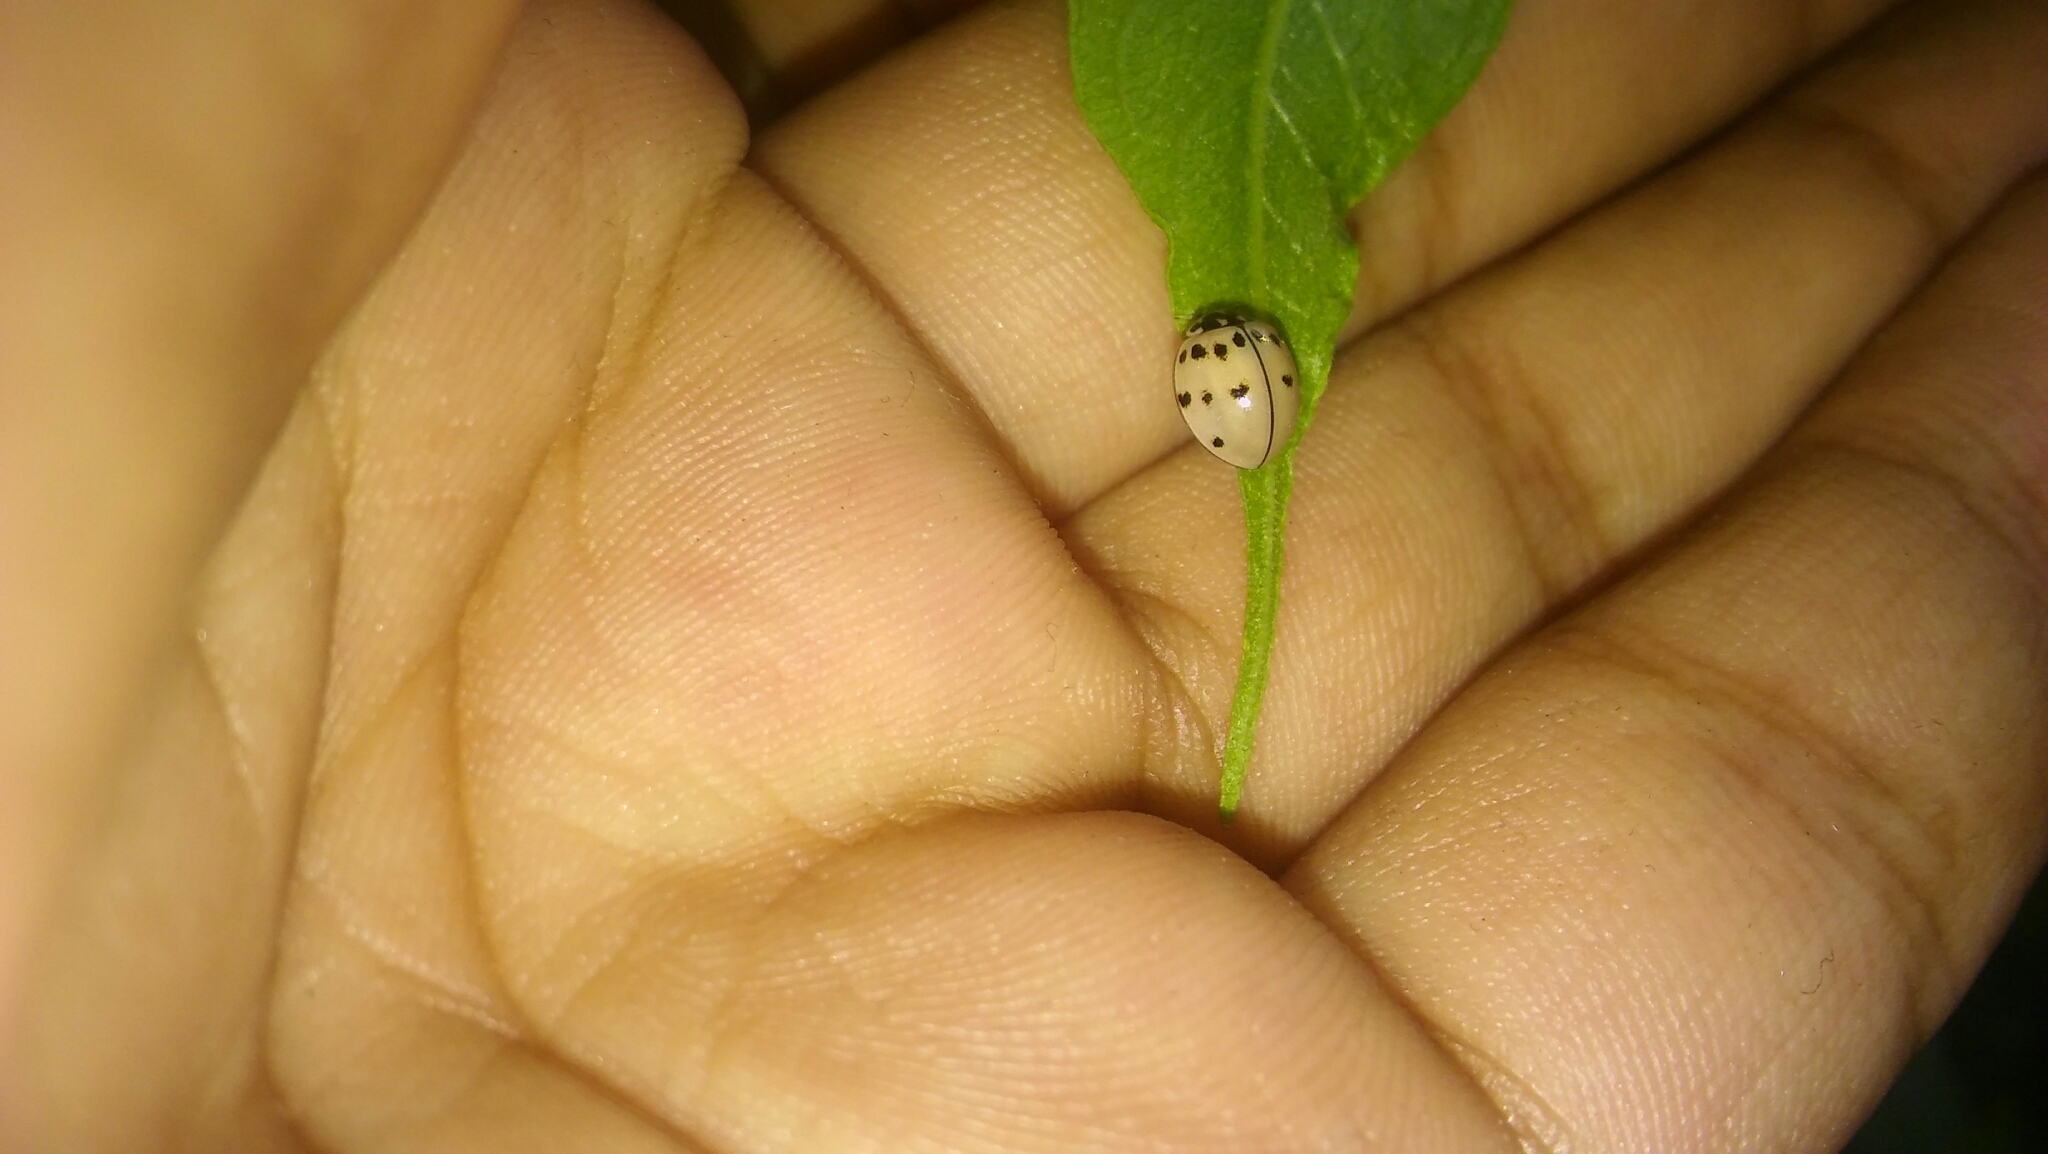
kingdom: Animalia
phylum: Arthropoda
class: Insecta
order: Coleoptera
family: Coccinellidae
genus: Olla
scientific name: Olla v-nigrum
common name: Ashy gray lady beetle
